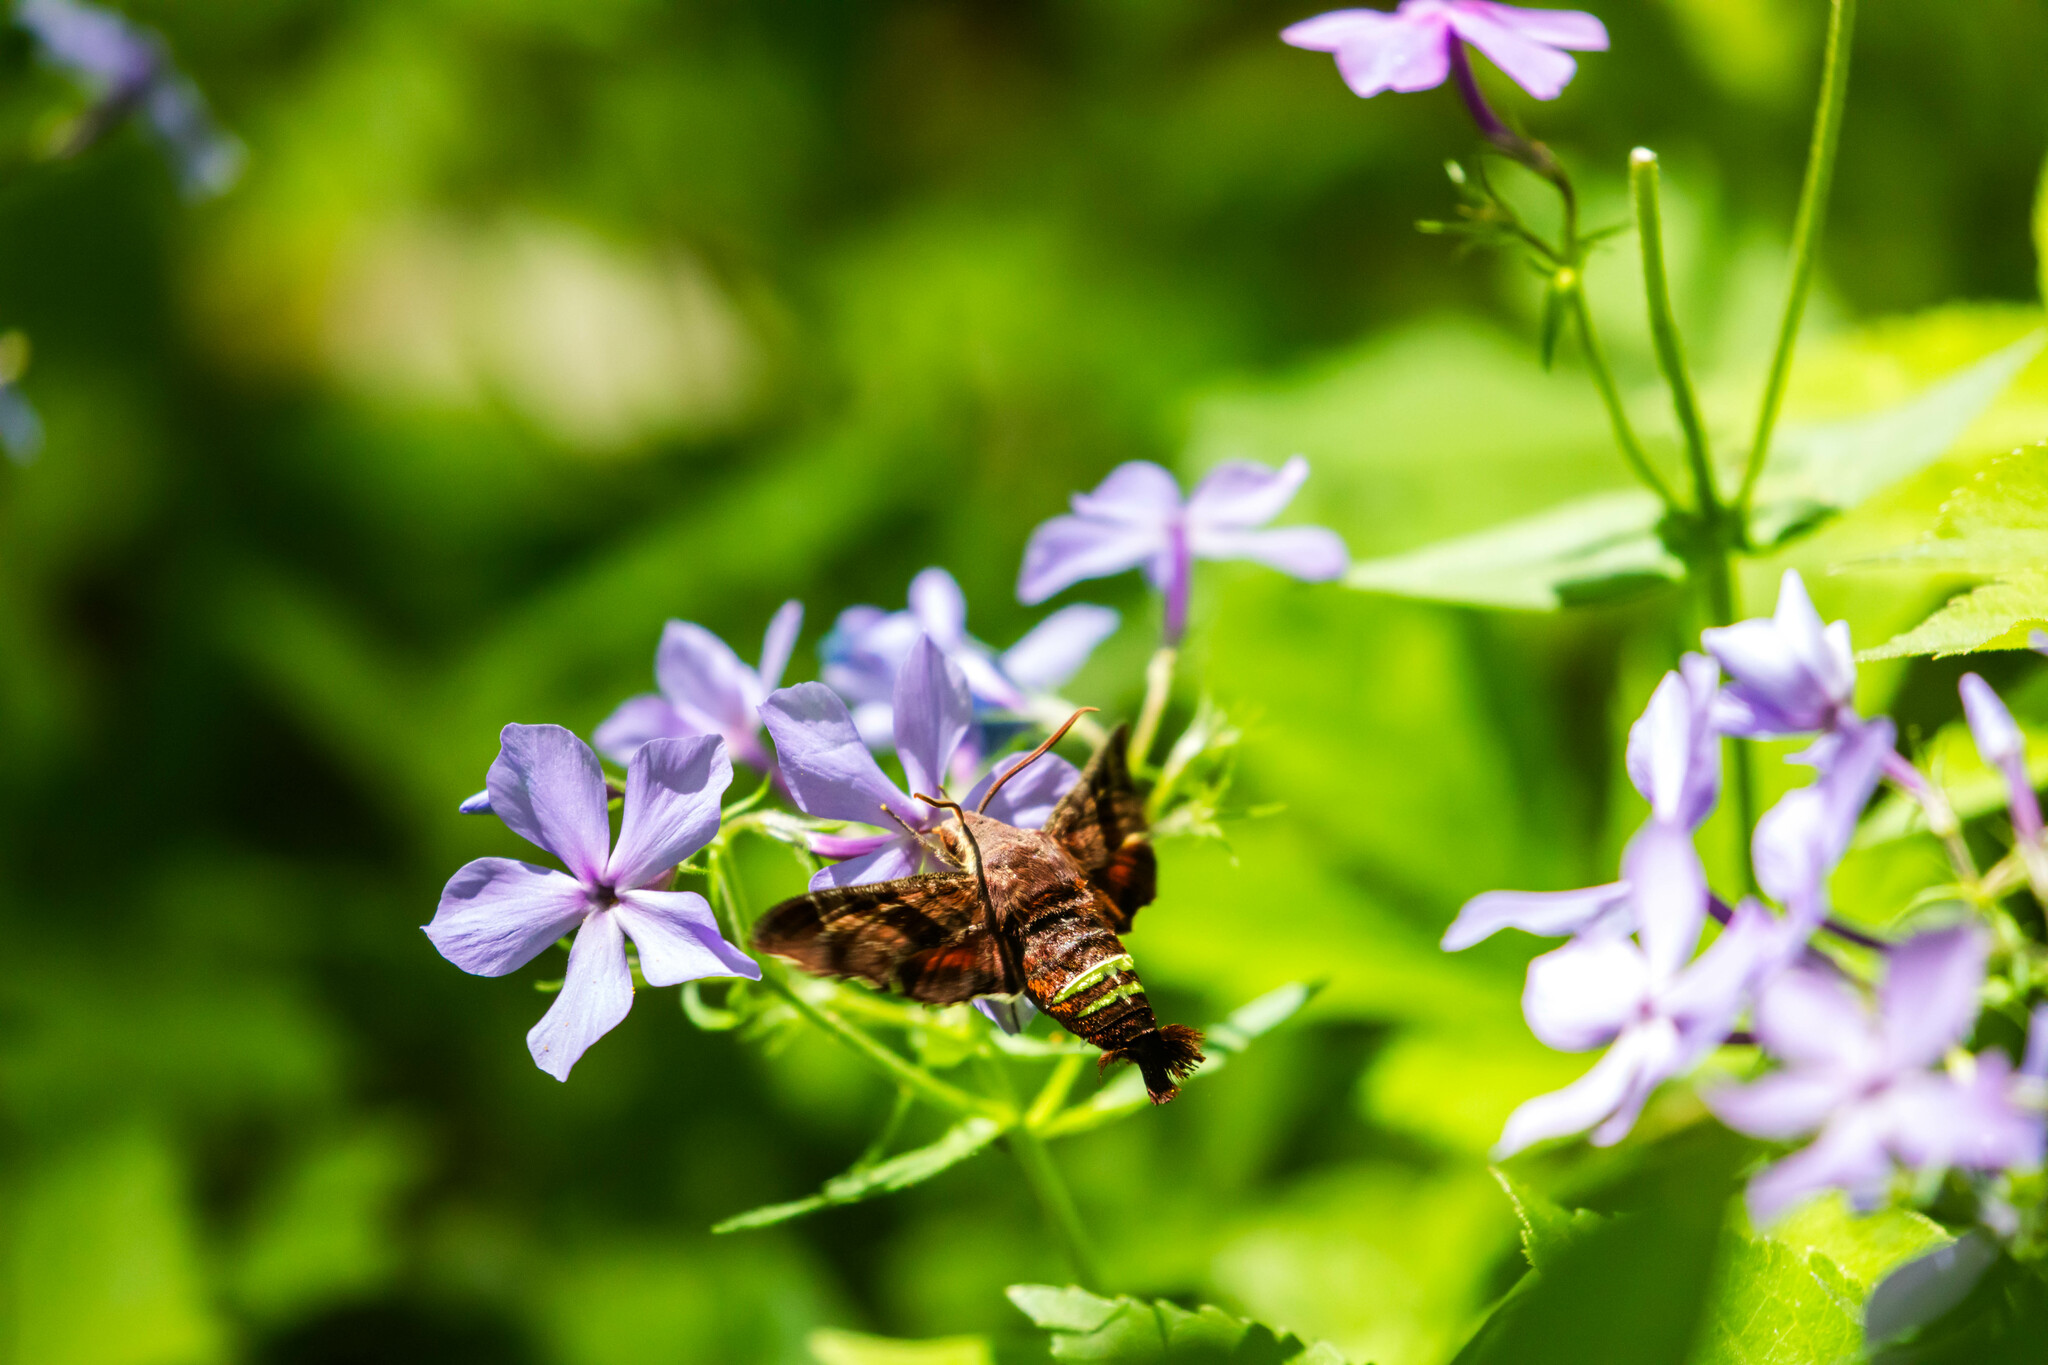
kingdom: Animalia
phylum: Arthropoda
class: Insecta
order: Lepidoptera
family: Sphingidae
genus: Amphion
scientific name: Amphion floridensis
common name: Nessus sphinx
